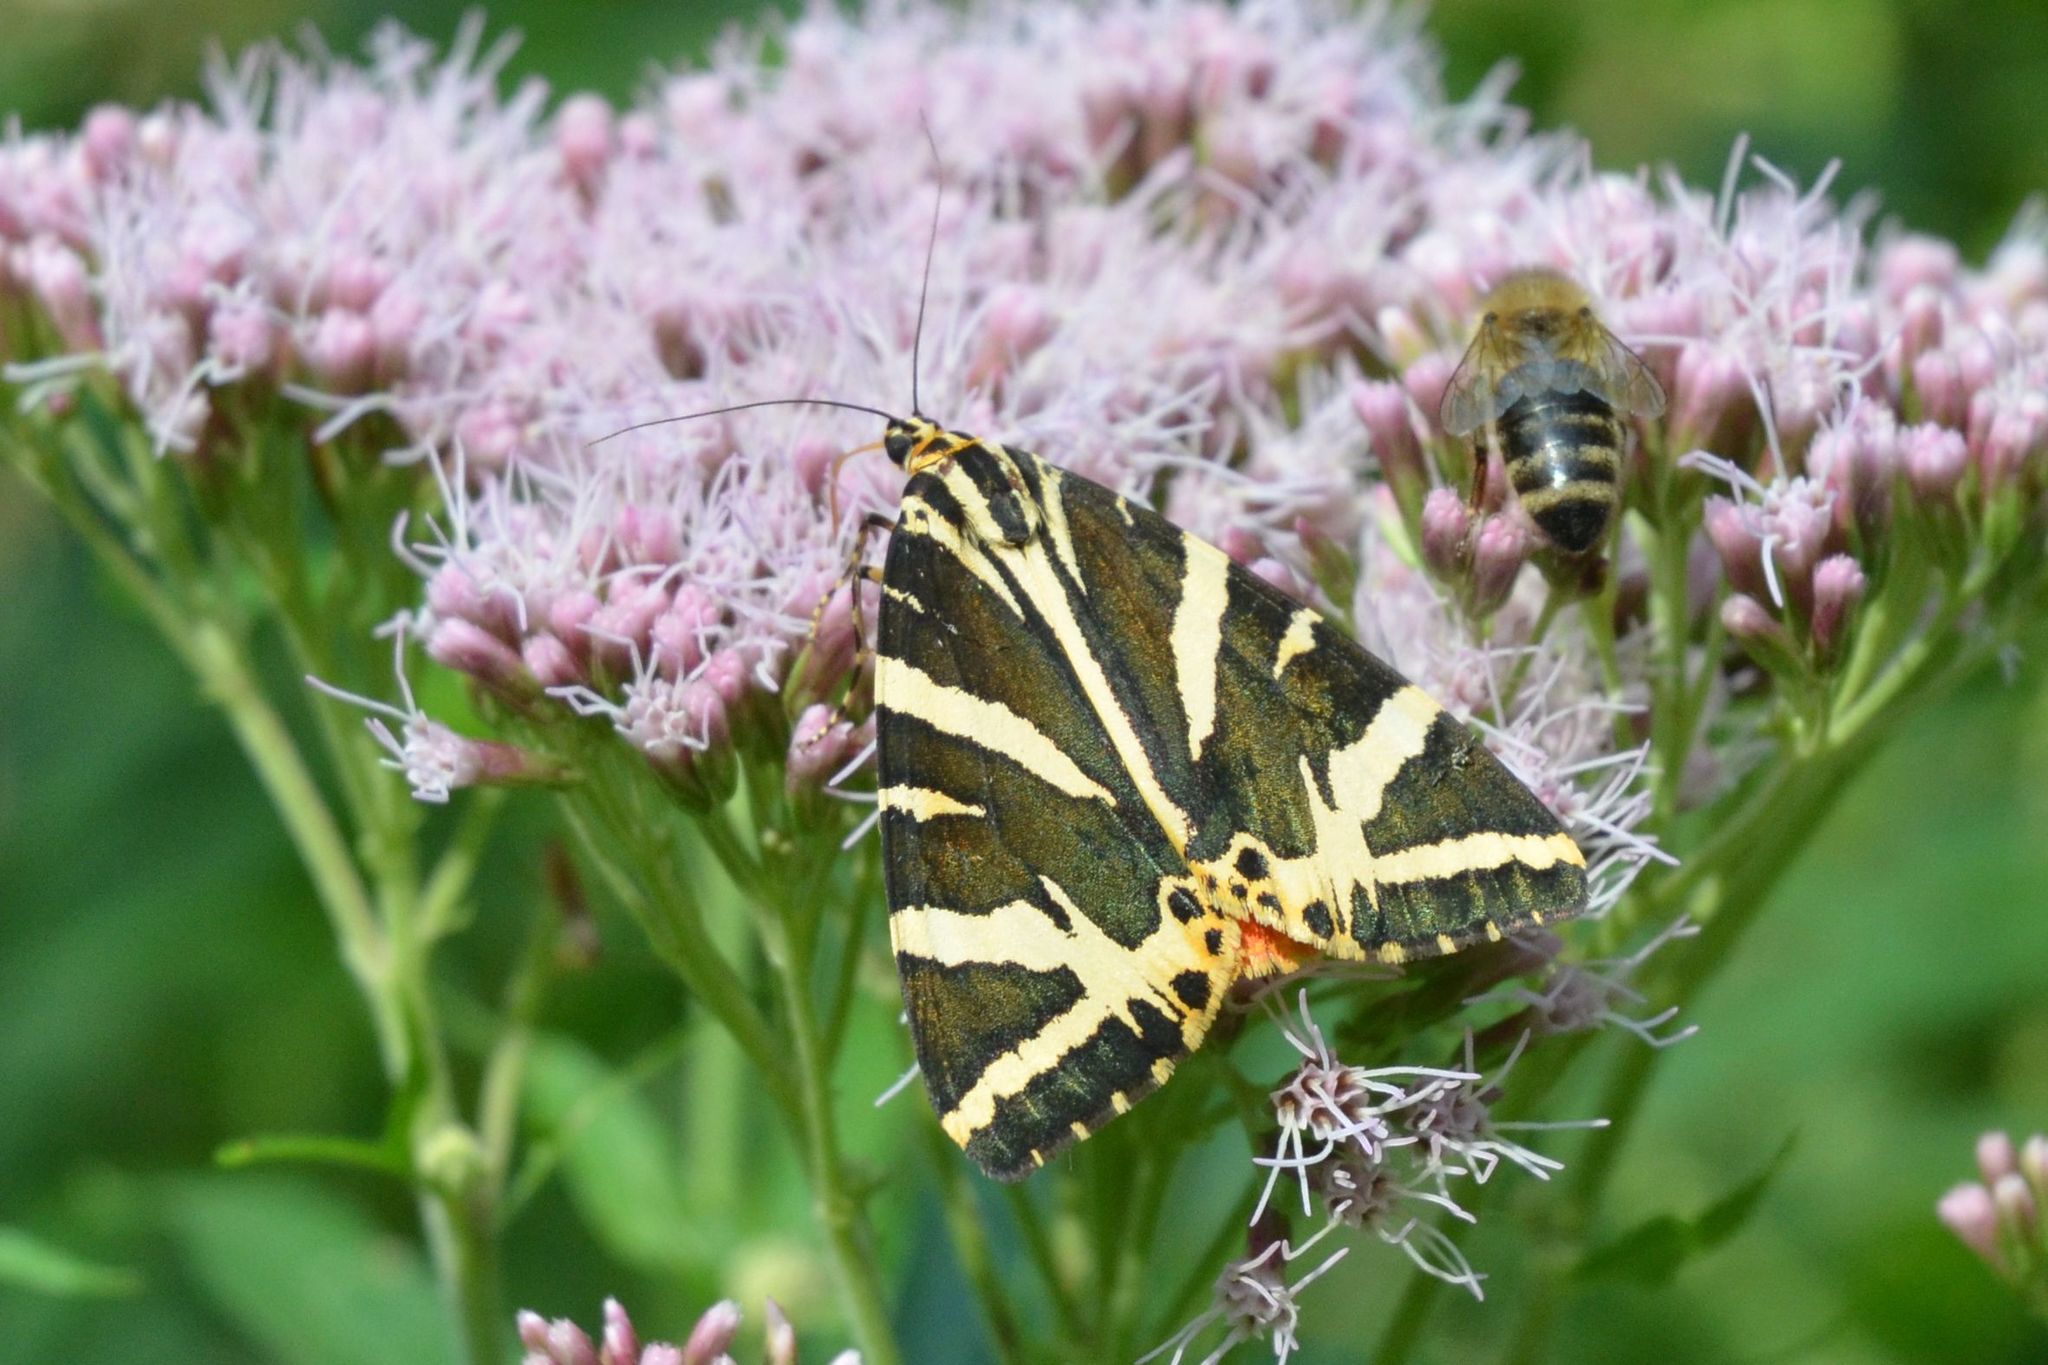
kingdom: Animalia
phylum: Arthropoda
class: Insecta
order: Lepidoptera
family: Erebidae
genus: Euplagia
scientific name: Euplagia quadripunctaria
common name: Jersey tiger
